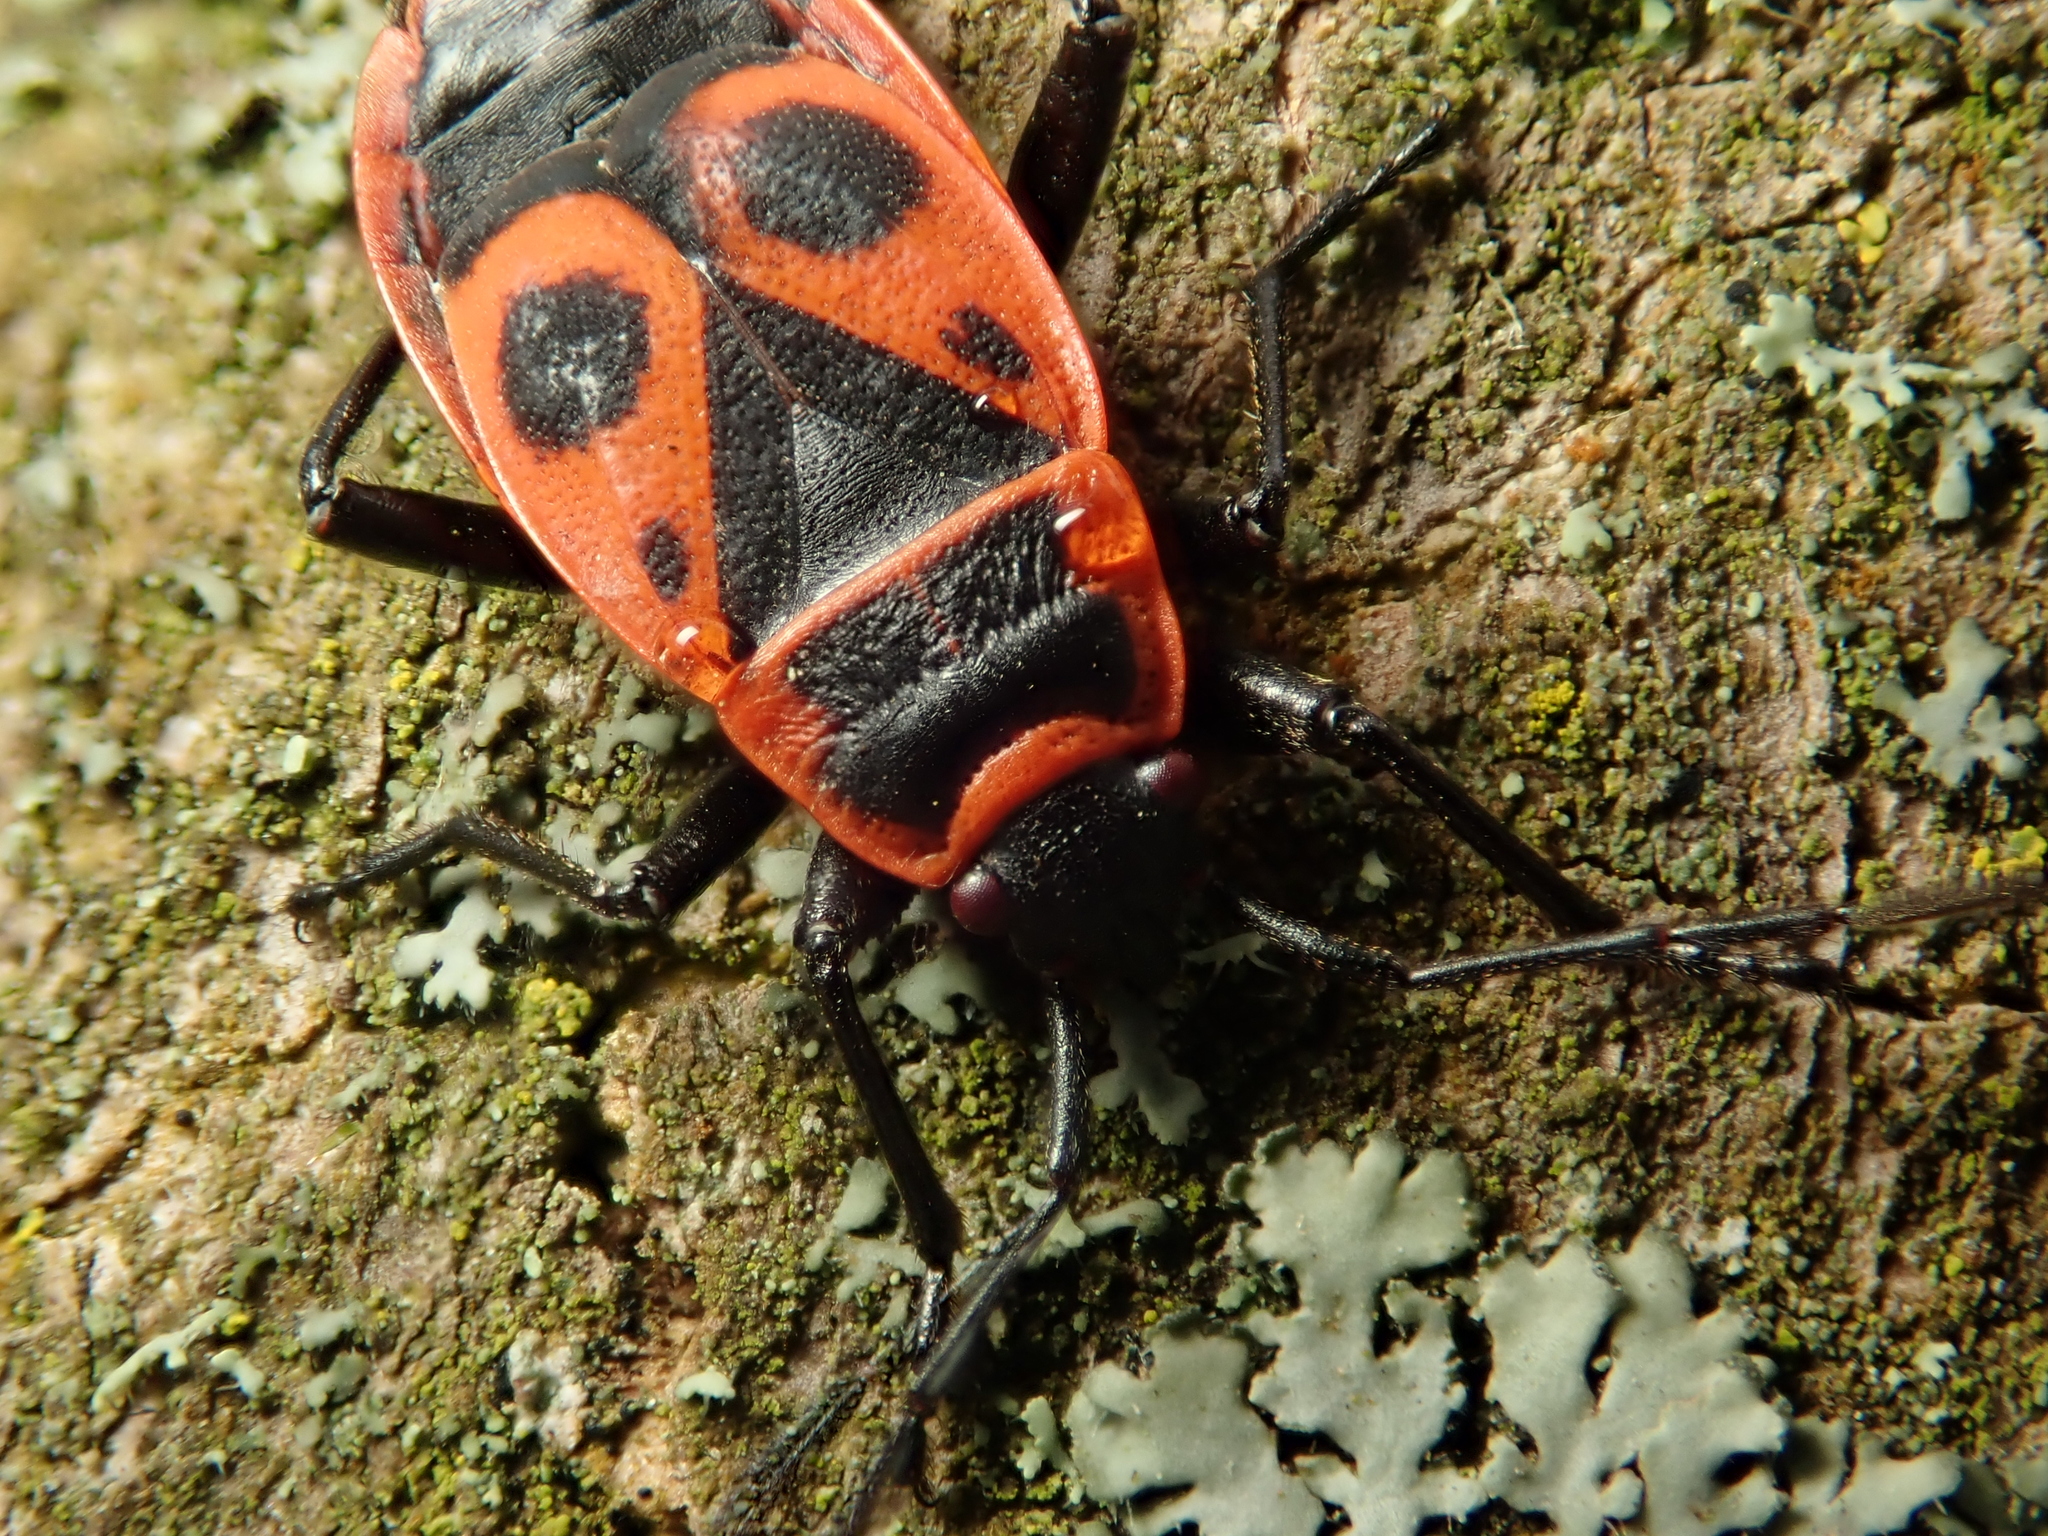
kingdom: Animalia
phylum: Arthropoda
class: Insecta
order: Hemiptera
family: Pyrrhocoridae
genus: Pyrrhocoris
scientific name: Pyrrhocoris apterus
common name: Firebug
